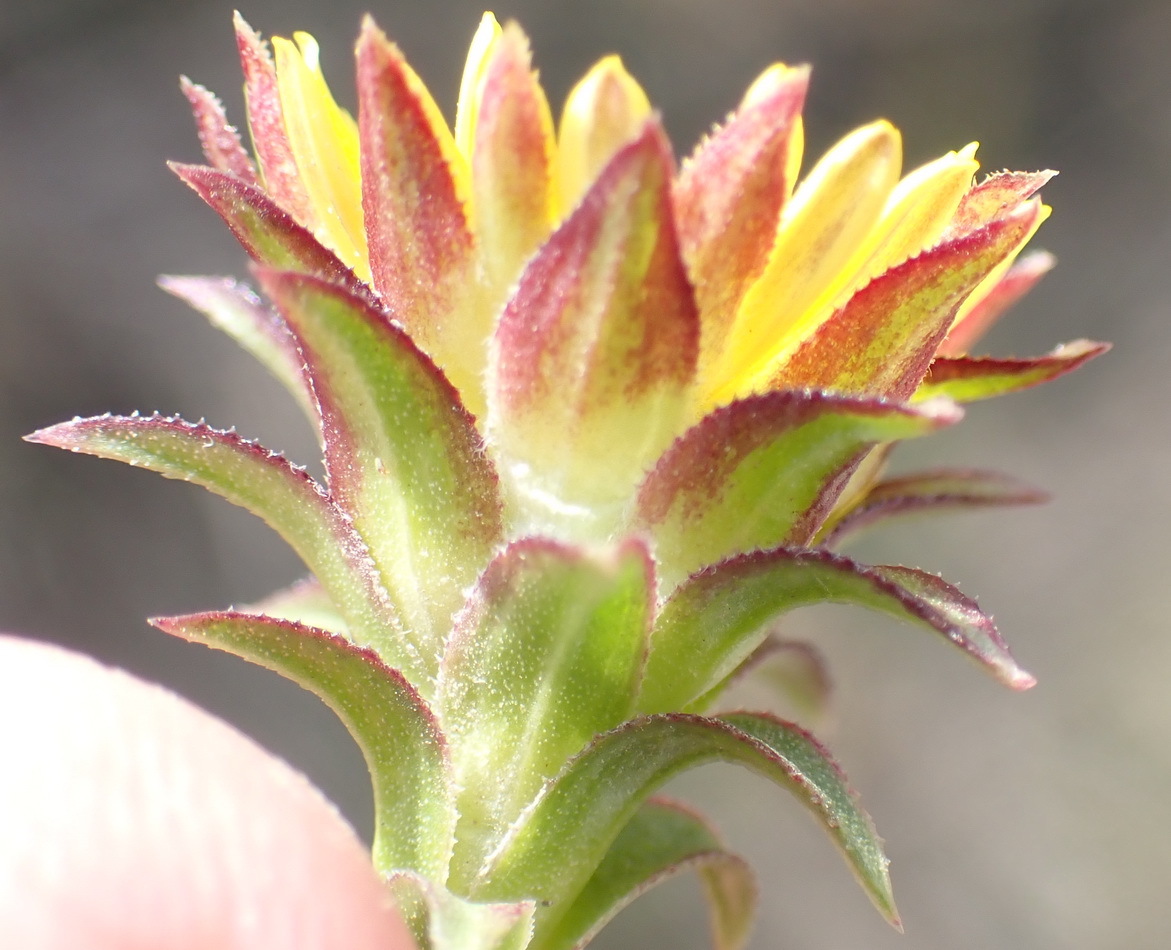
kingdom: Plantae
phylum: Tracheophyta
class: Magnoliopsida
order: Asterales
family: Asteraceae
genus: Oedera
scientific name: Oedera imbricata
